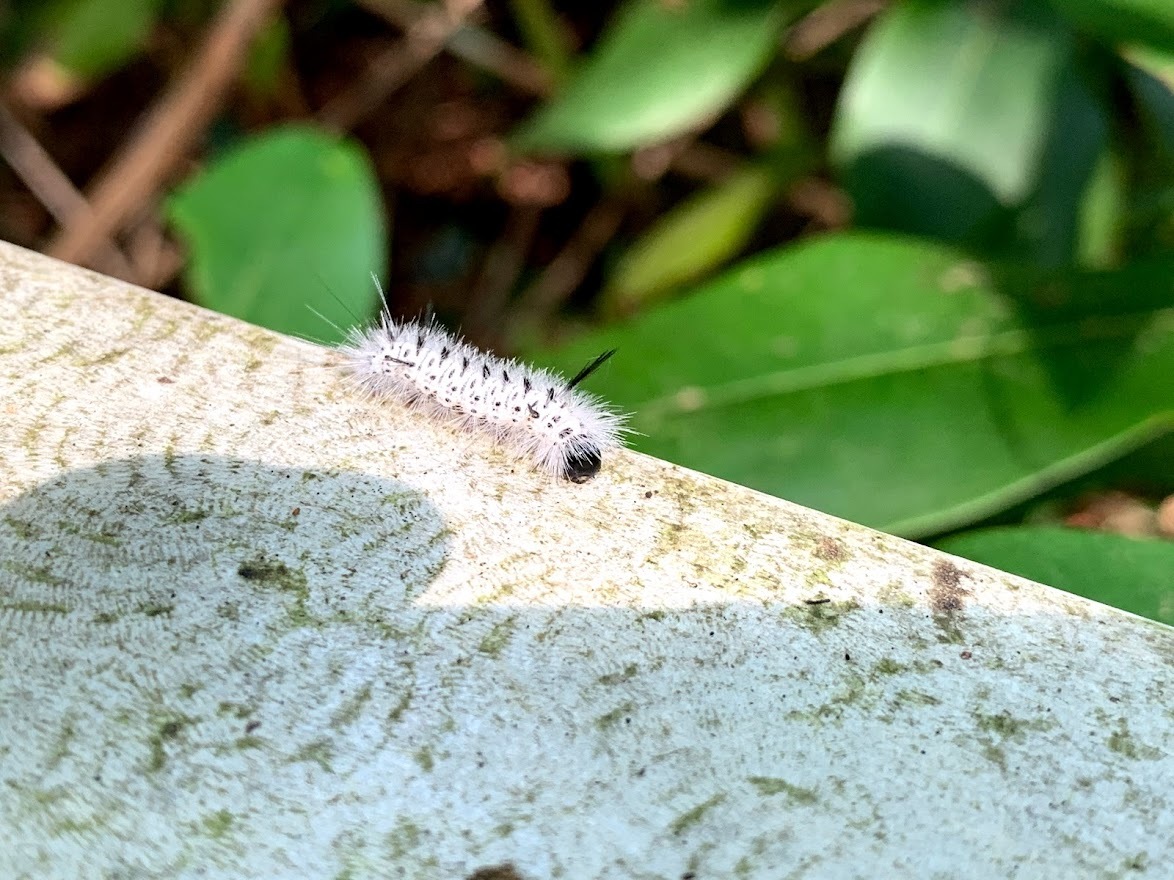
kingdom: Animalia
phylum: Arthropoda
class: Insecta
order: Lepidoptera
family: Erebidae
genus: Lophocampa
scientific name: Lophocampa caryae
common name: Hickory tussock moth
